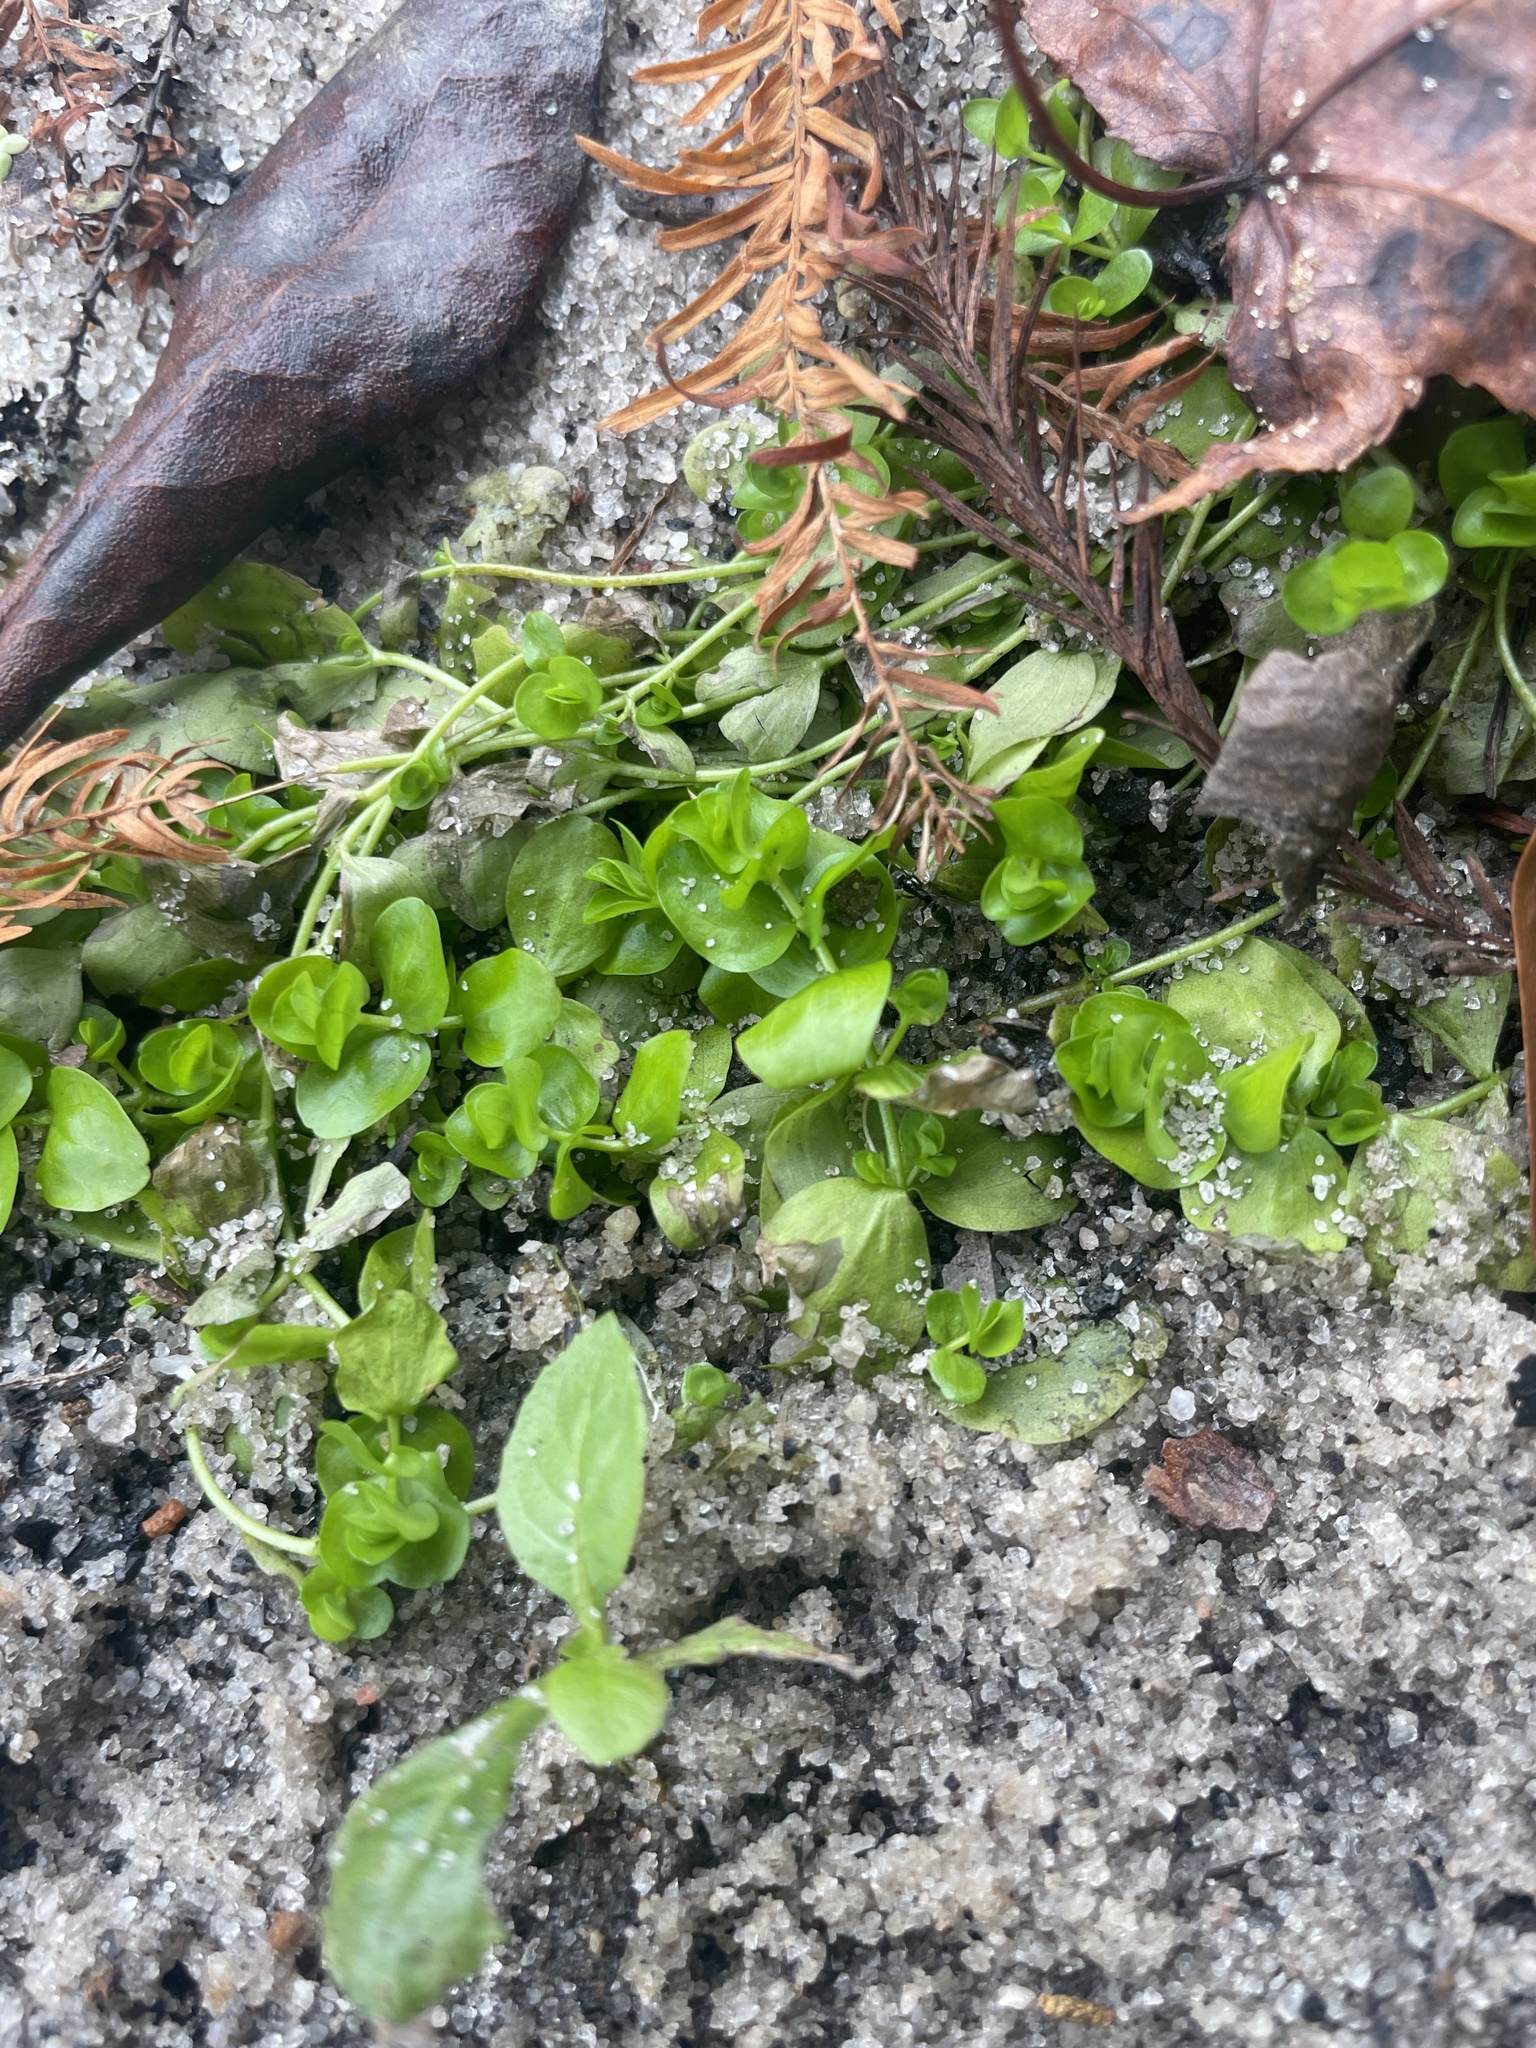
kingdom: Plantae
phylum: Tracheophyta
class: Magnoliopsida
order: Lamiales
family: Linderniaceae
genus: Micranthemum
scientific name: Micranthemum umbrosum
